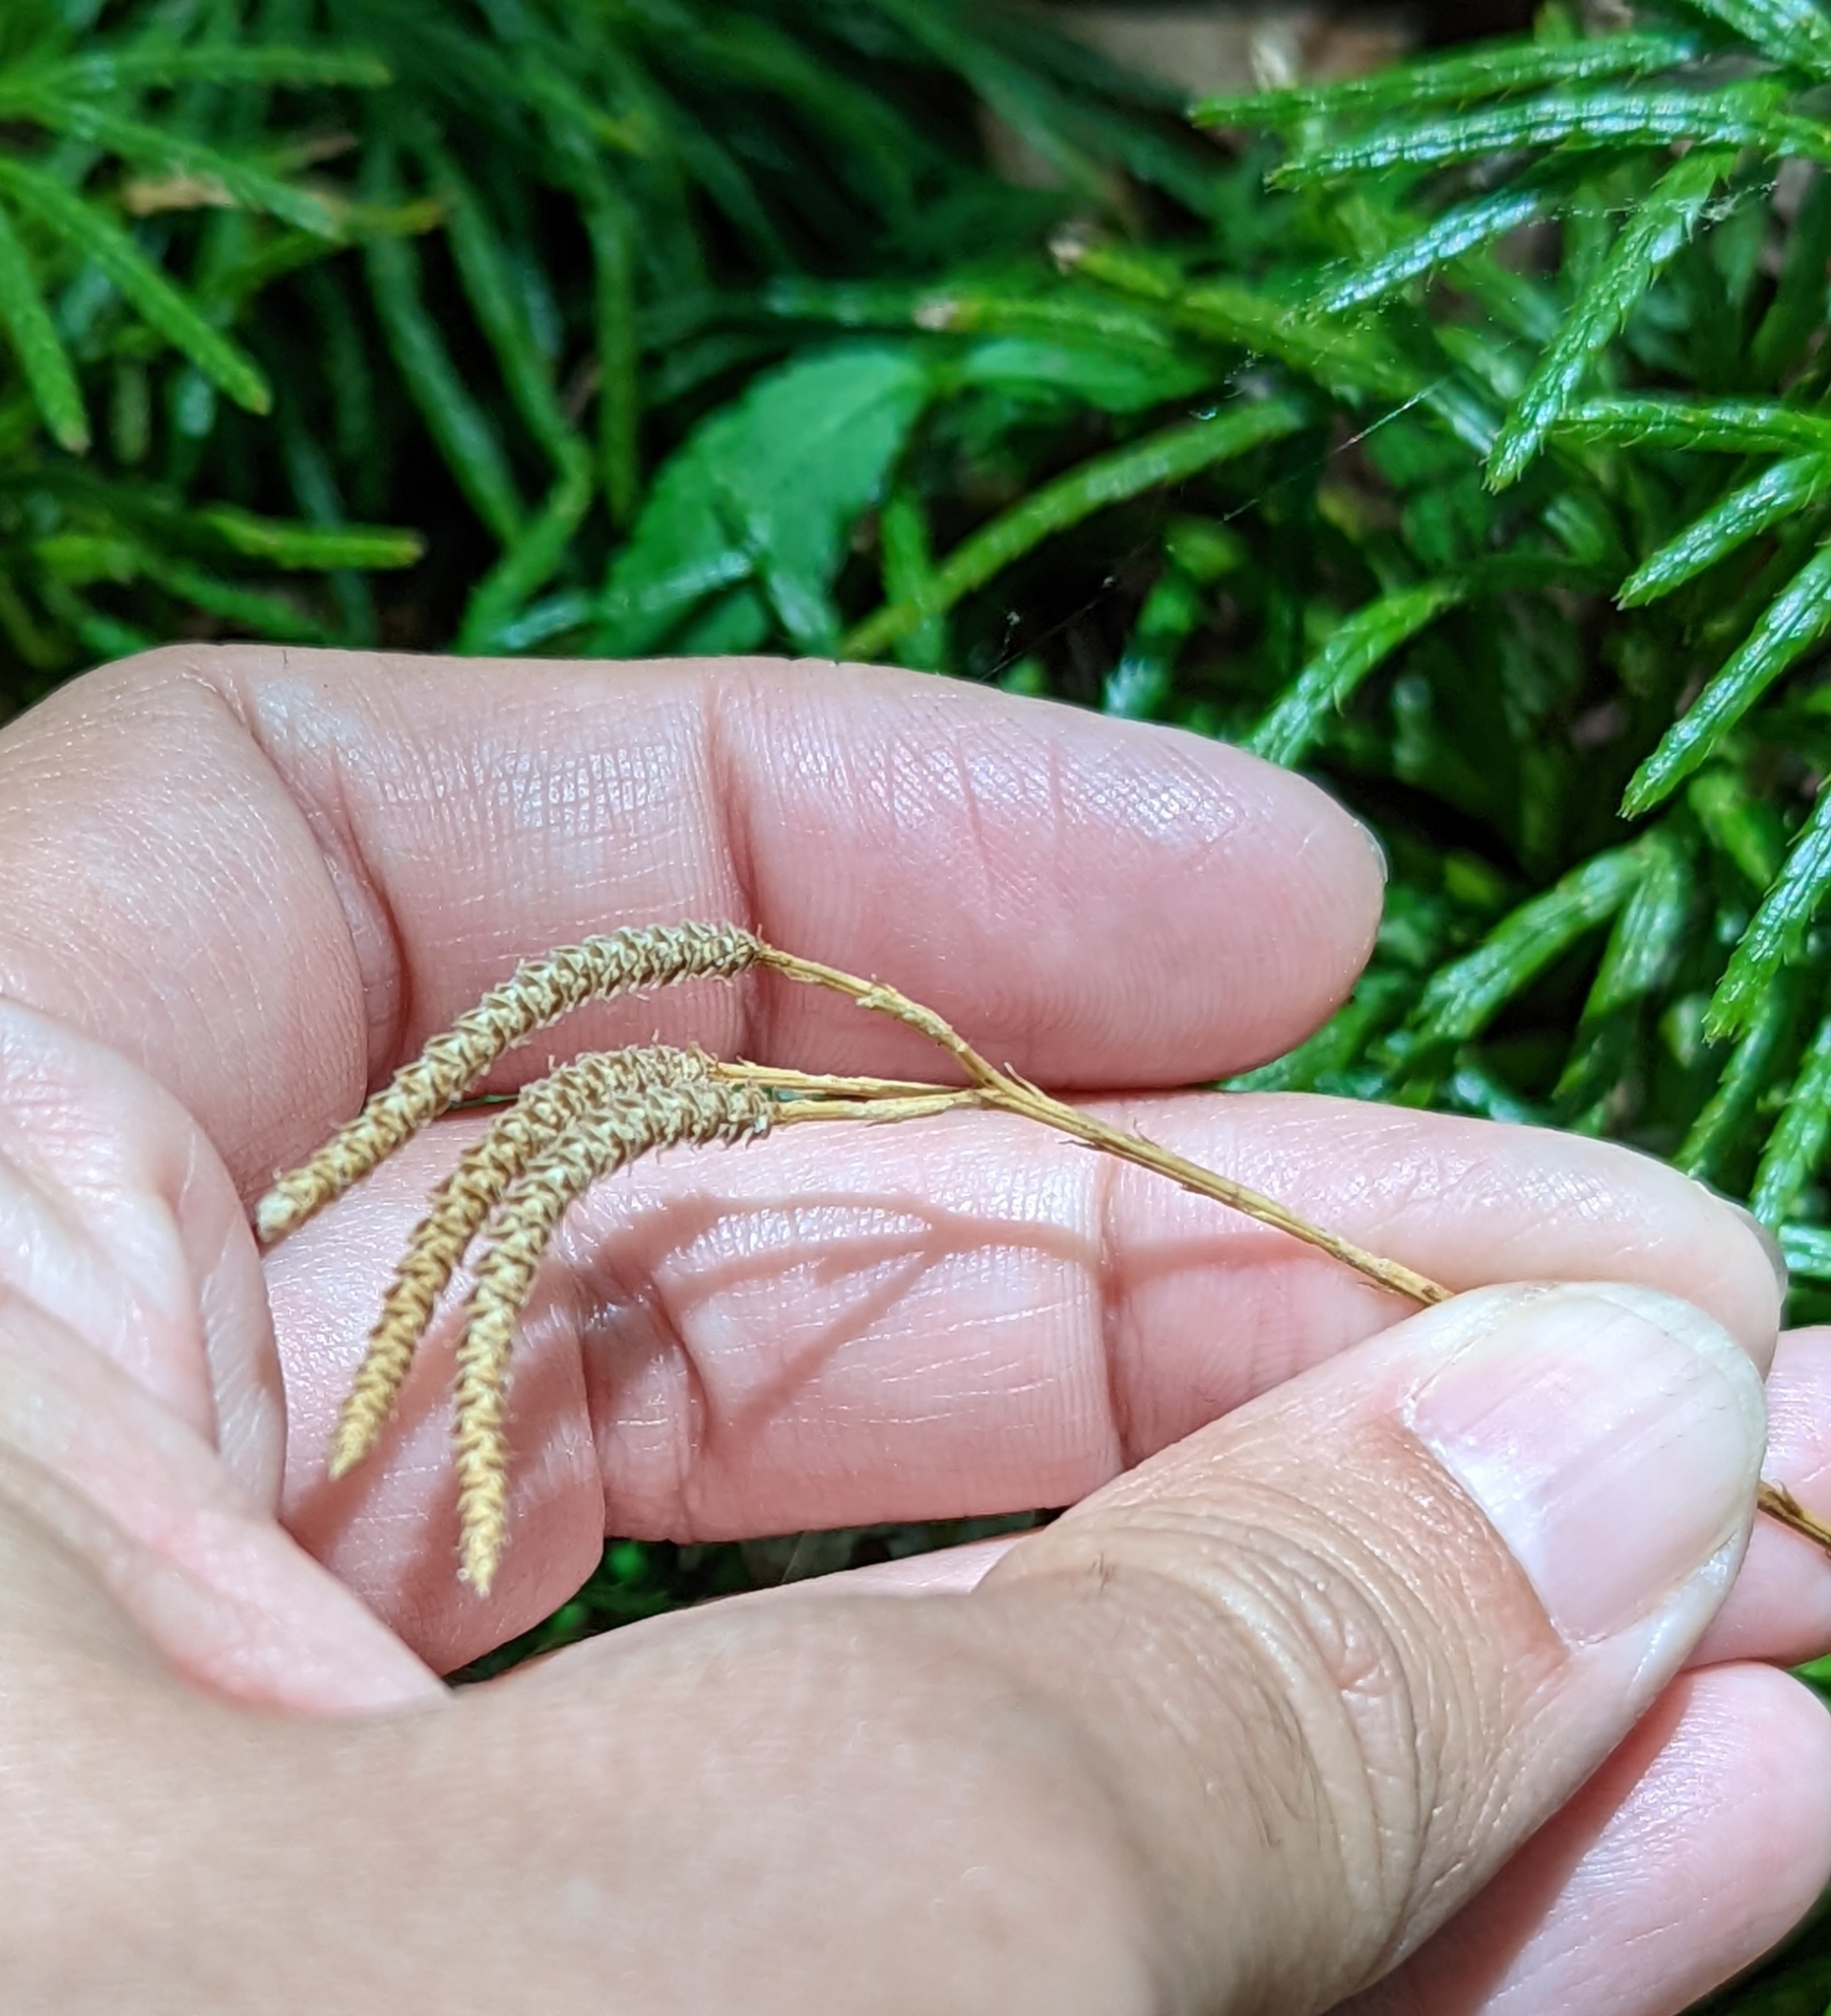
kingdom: Plantae
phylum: Tracheophyta
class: Lycopodiopsida
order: Lycopodiales
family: Lycopodiaceae
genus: Diphasiastrum
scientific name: Diphasiastrum digitatum
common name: Southern running-pine
